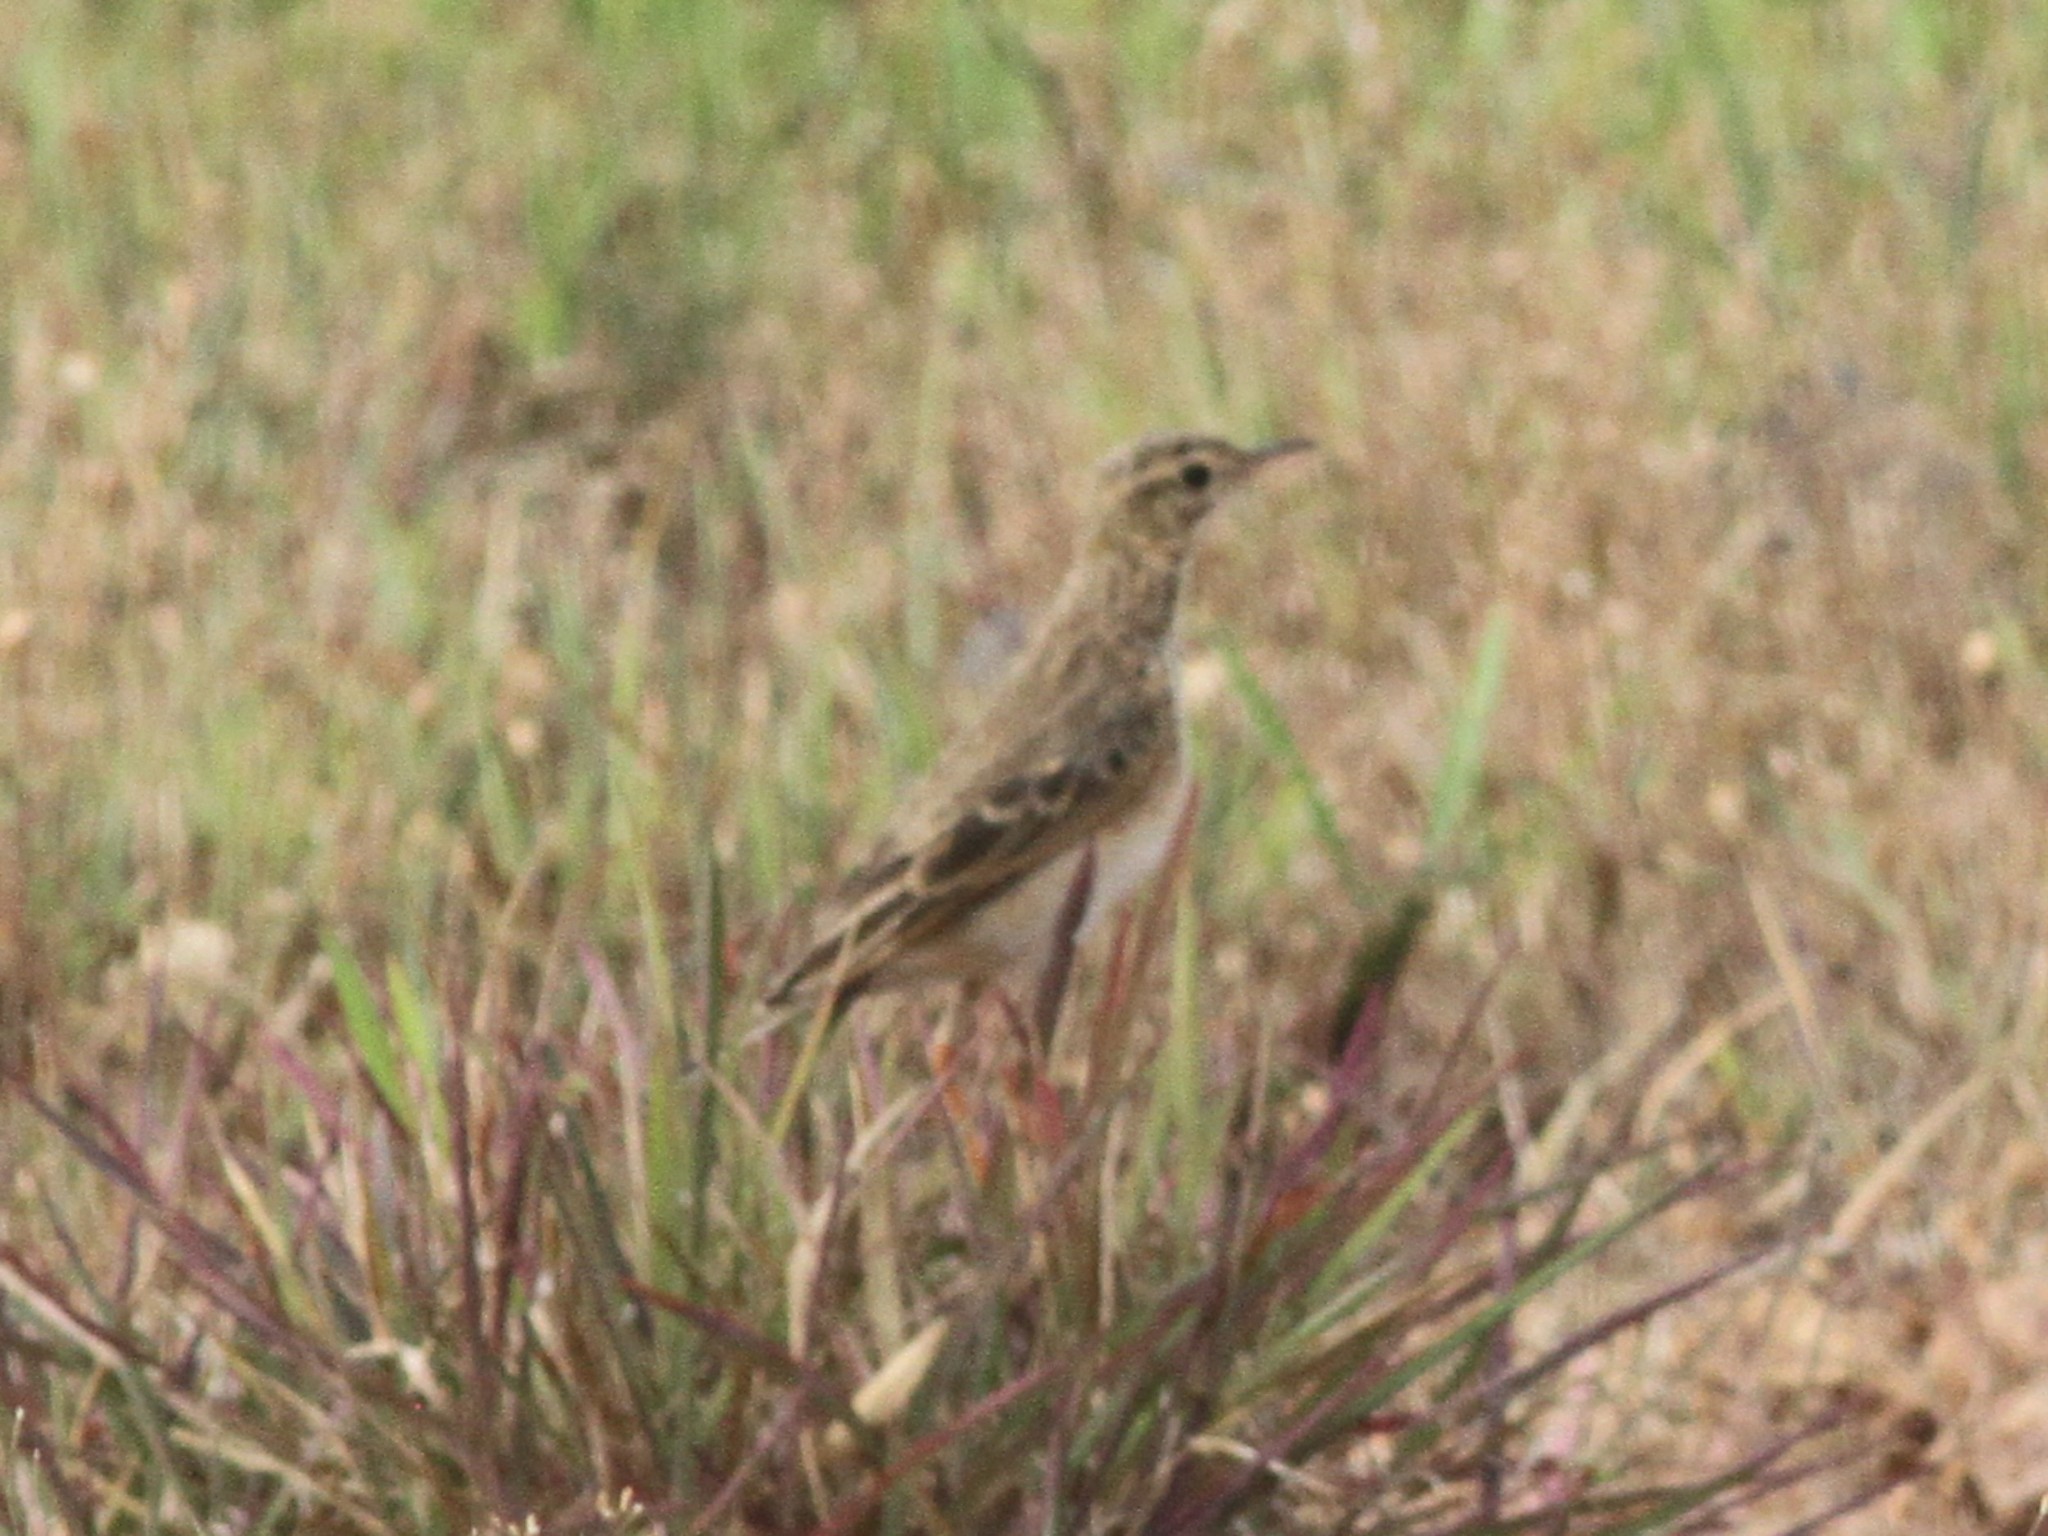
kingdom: Animalia
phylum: Chordata
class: Aves
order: Passeriformes
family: Motacillidae
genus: Anthus
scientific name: Anthus rufulus
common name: Paddyfield pipit
